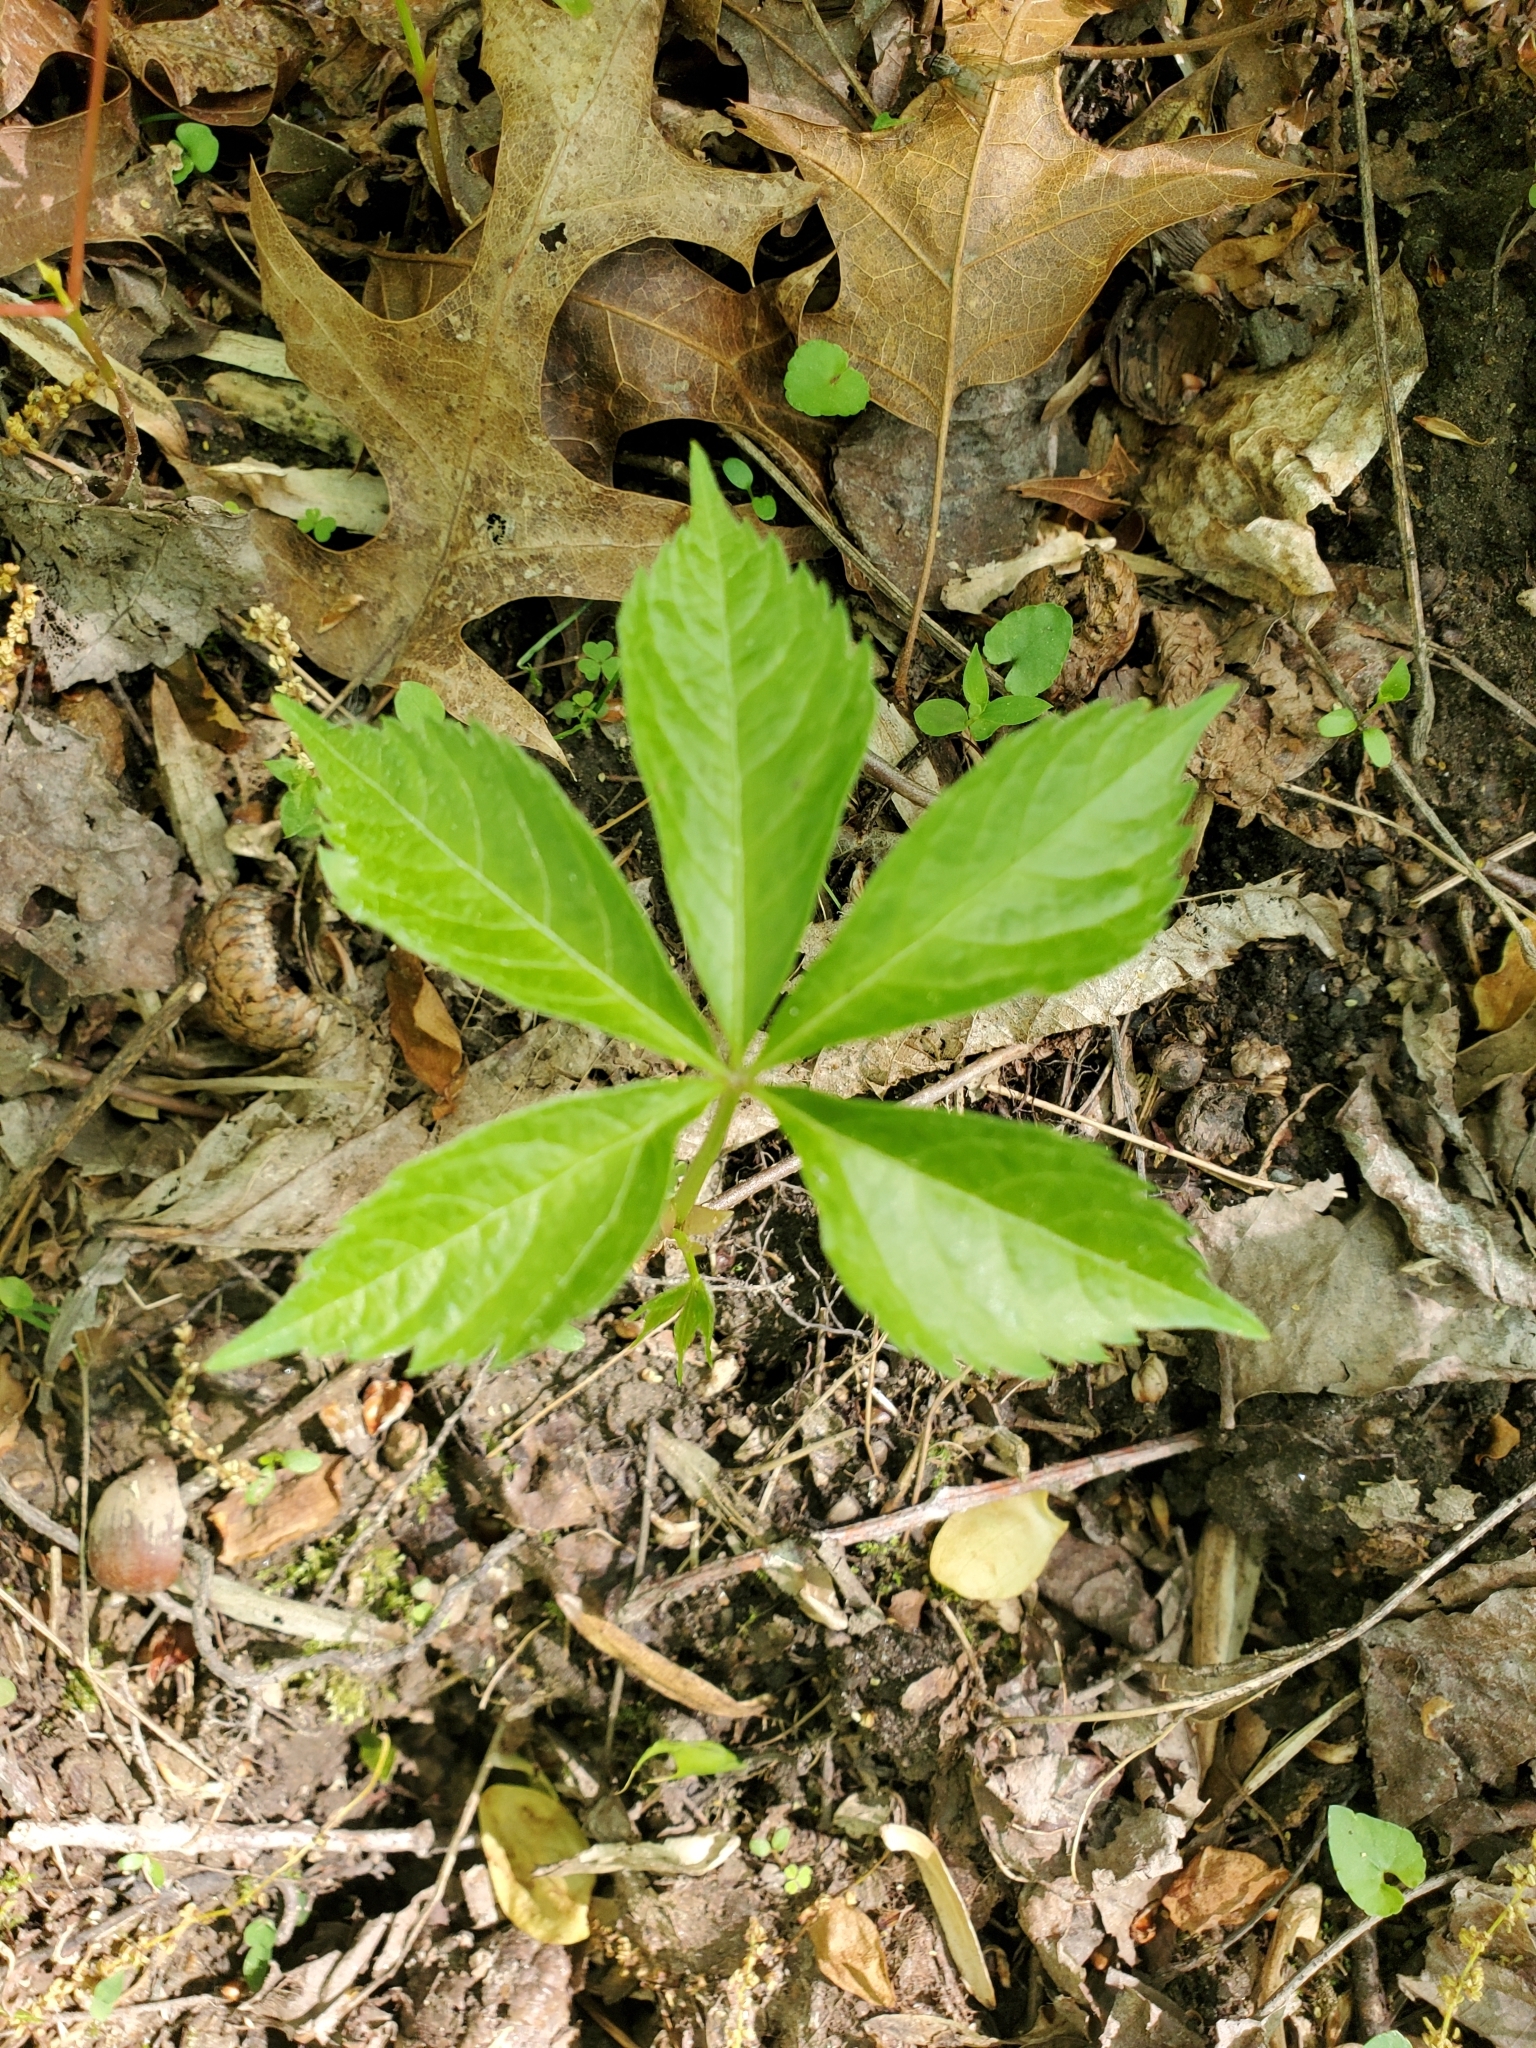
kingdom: Plantae
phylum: Tracheophyta
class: Magnoliopsida
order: Vitales
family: Vitaceae
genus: Parthenocissus
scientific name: Parthenocissus quinquefolia
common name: Virginia-creeper
